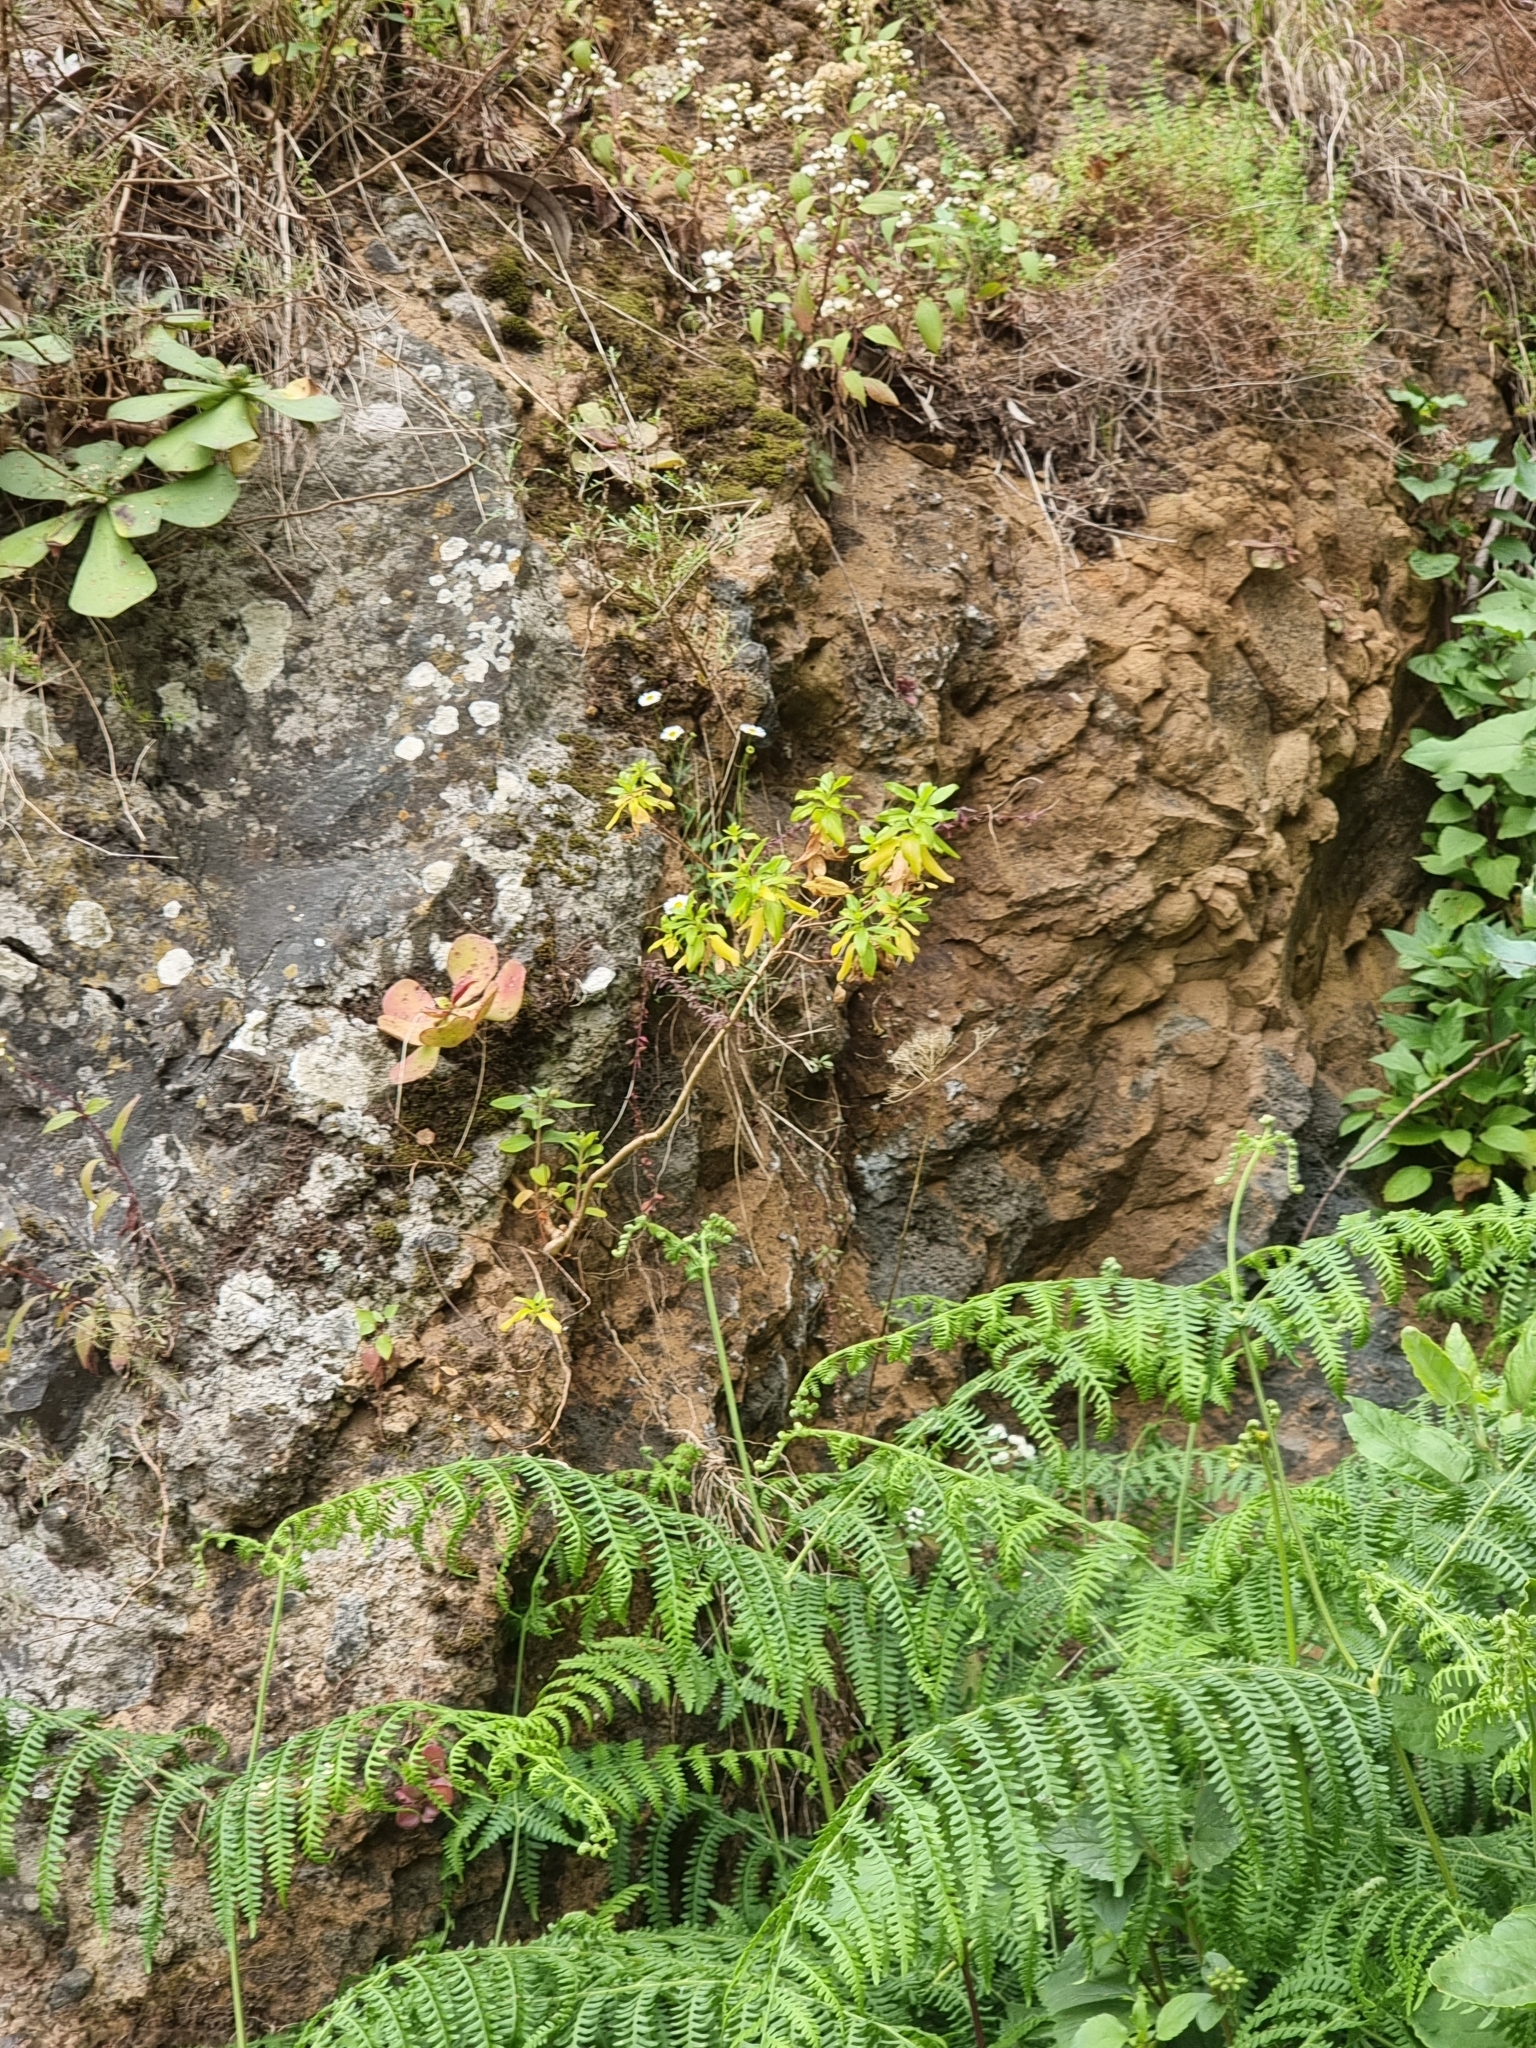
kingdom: Plantae
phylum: Tracheophyta
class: Magnoliopsida
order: Malpighiales
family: Hypericaceae
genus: Hypericum
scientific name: Hypericum glandulosum
